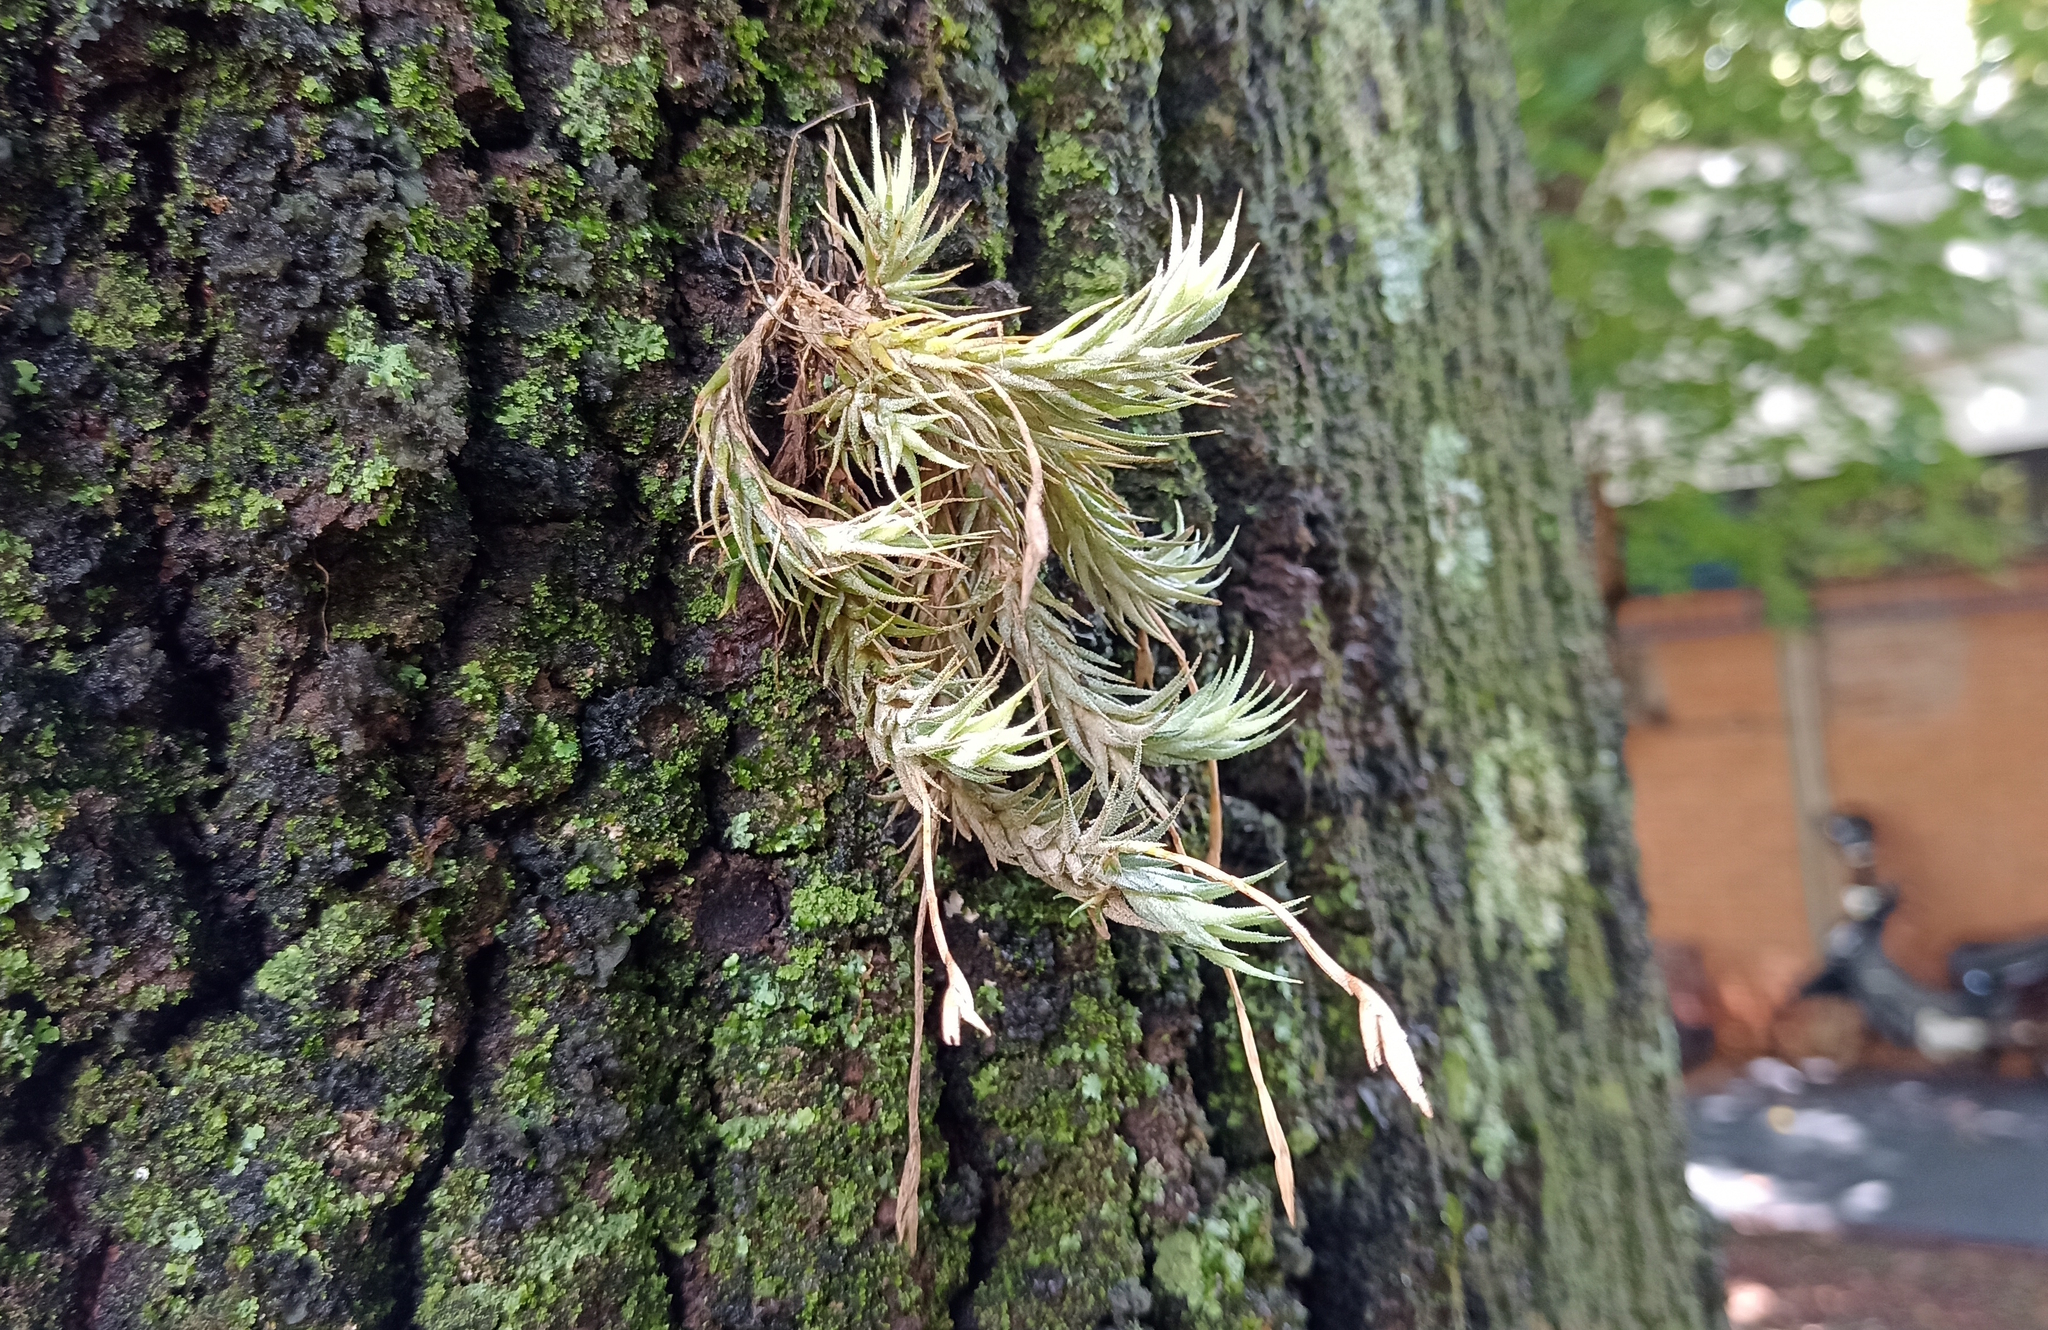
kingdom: Plantae
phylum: Tracheophyta
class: Liliopsida
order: Poales
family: Bromeliaceae
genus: Tillandsia
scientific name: Tillandsia tricholepis
